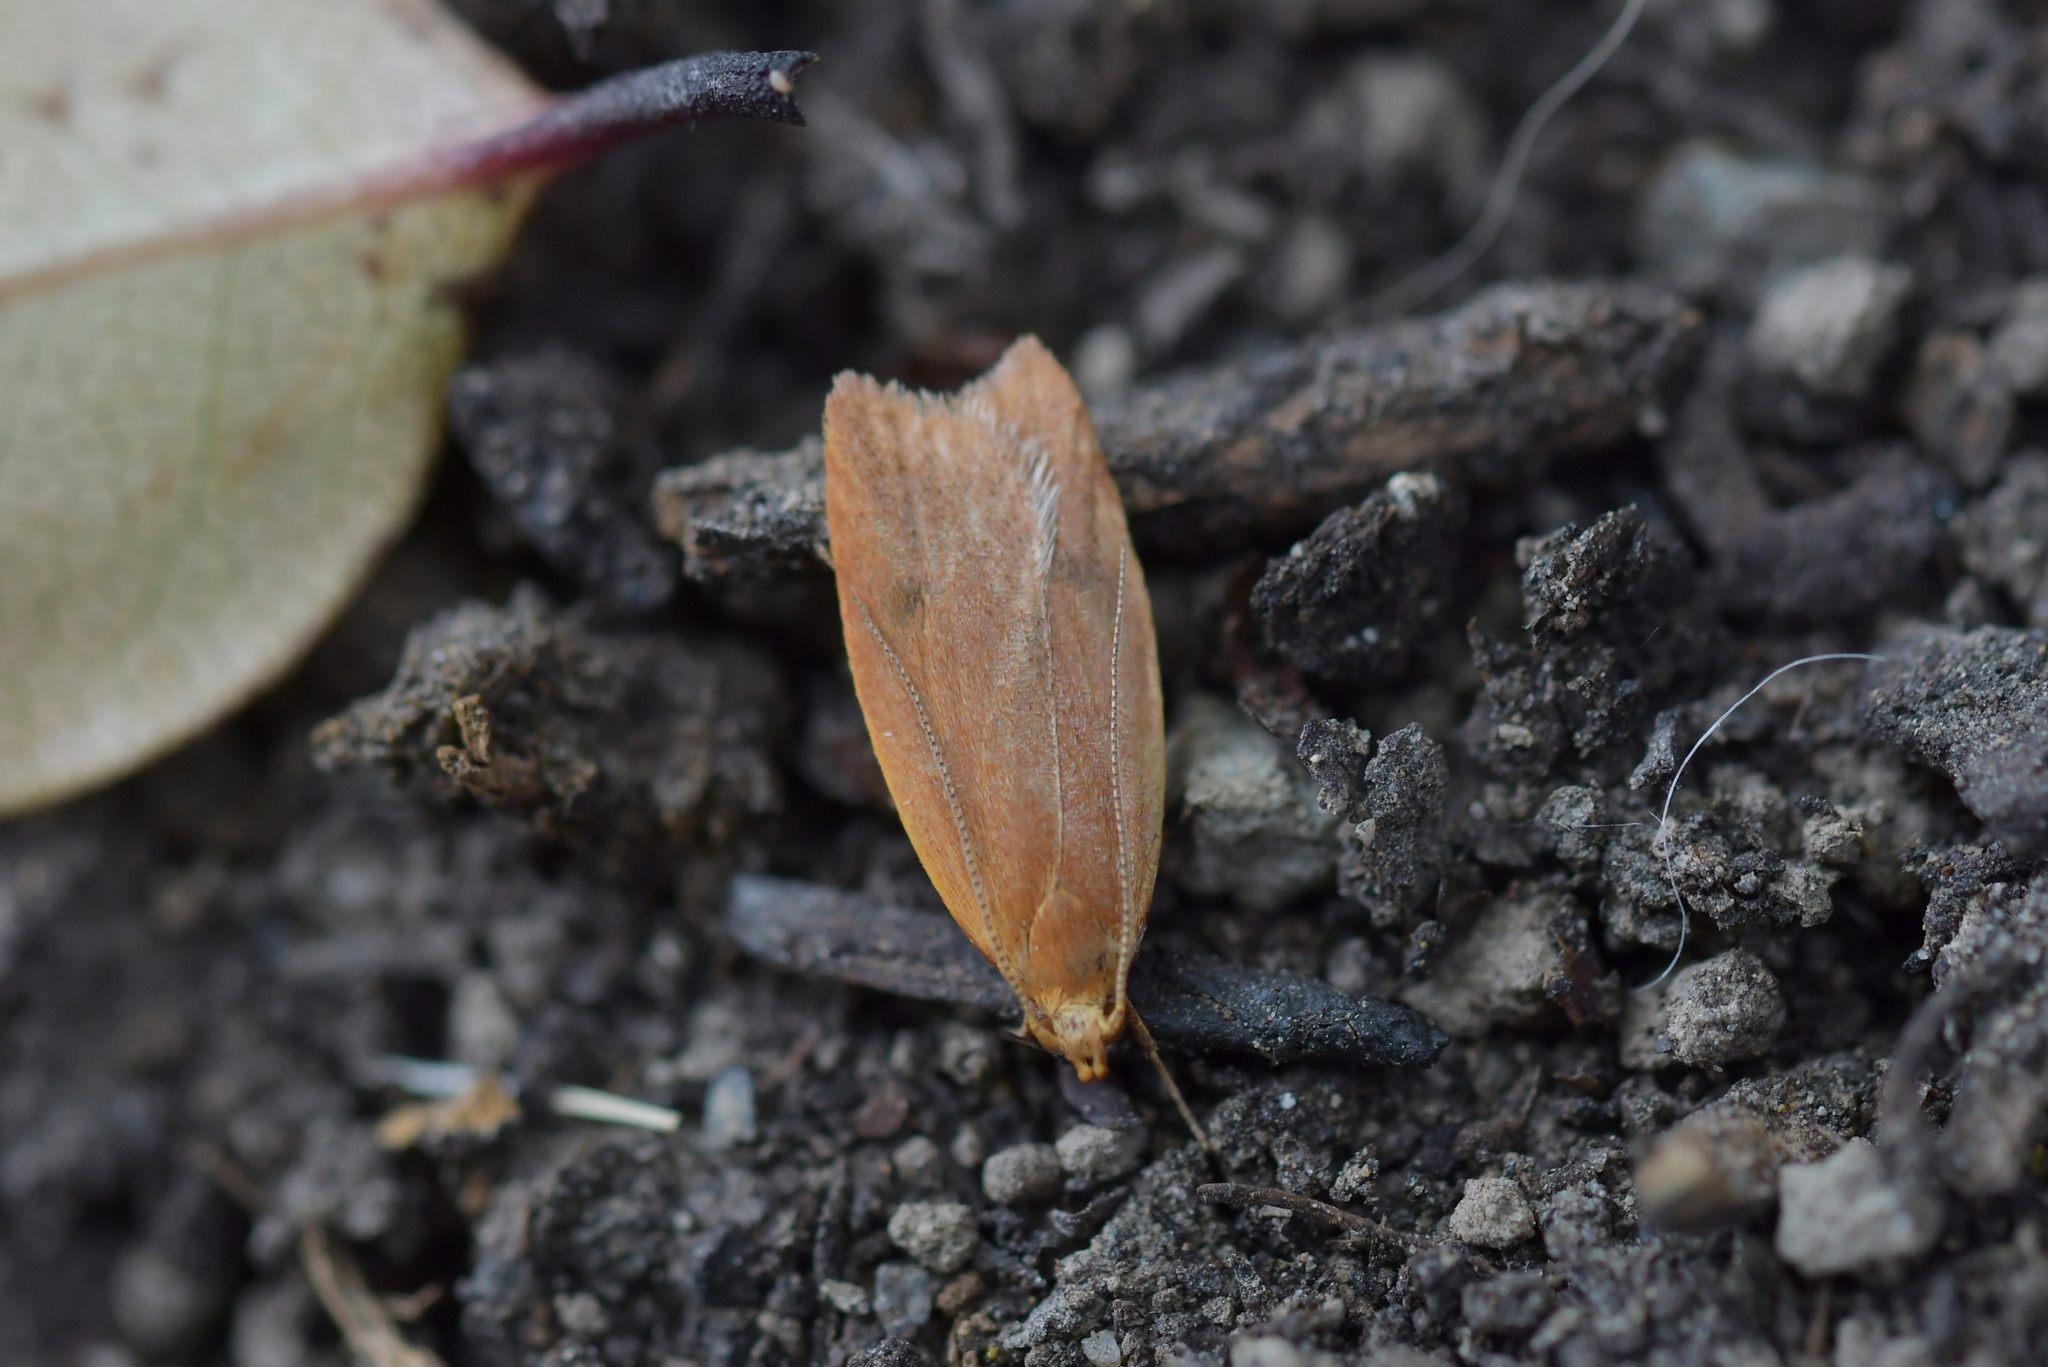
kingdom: Animalia
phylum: Arthropoda
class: Insecta
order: Lepidoptera
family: Oecophoridae
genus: Gymnobathra
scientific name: Gymnobathra sarcoxantha
